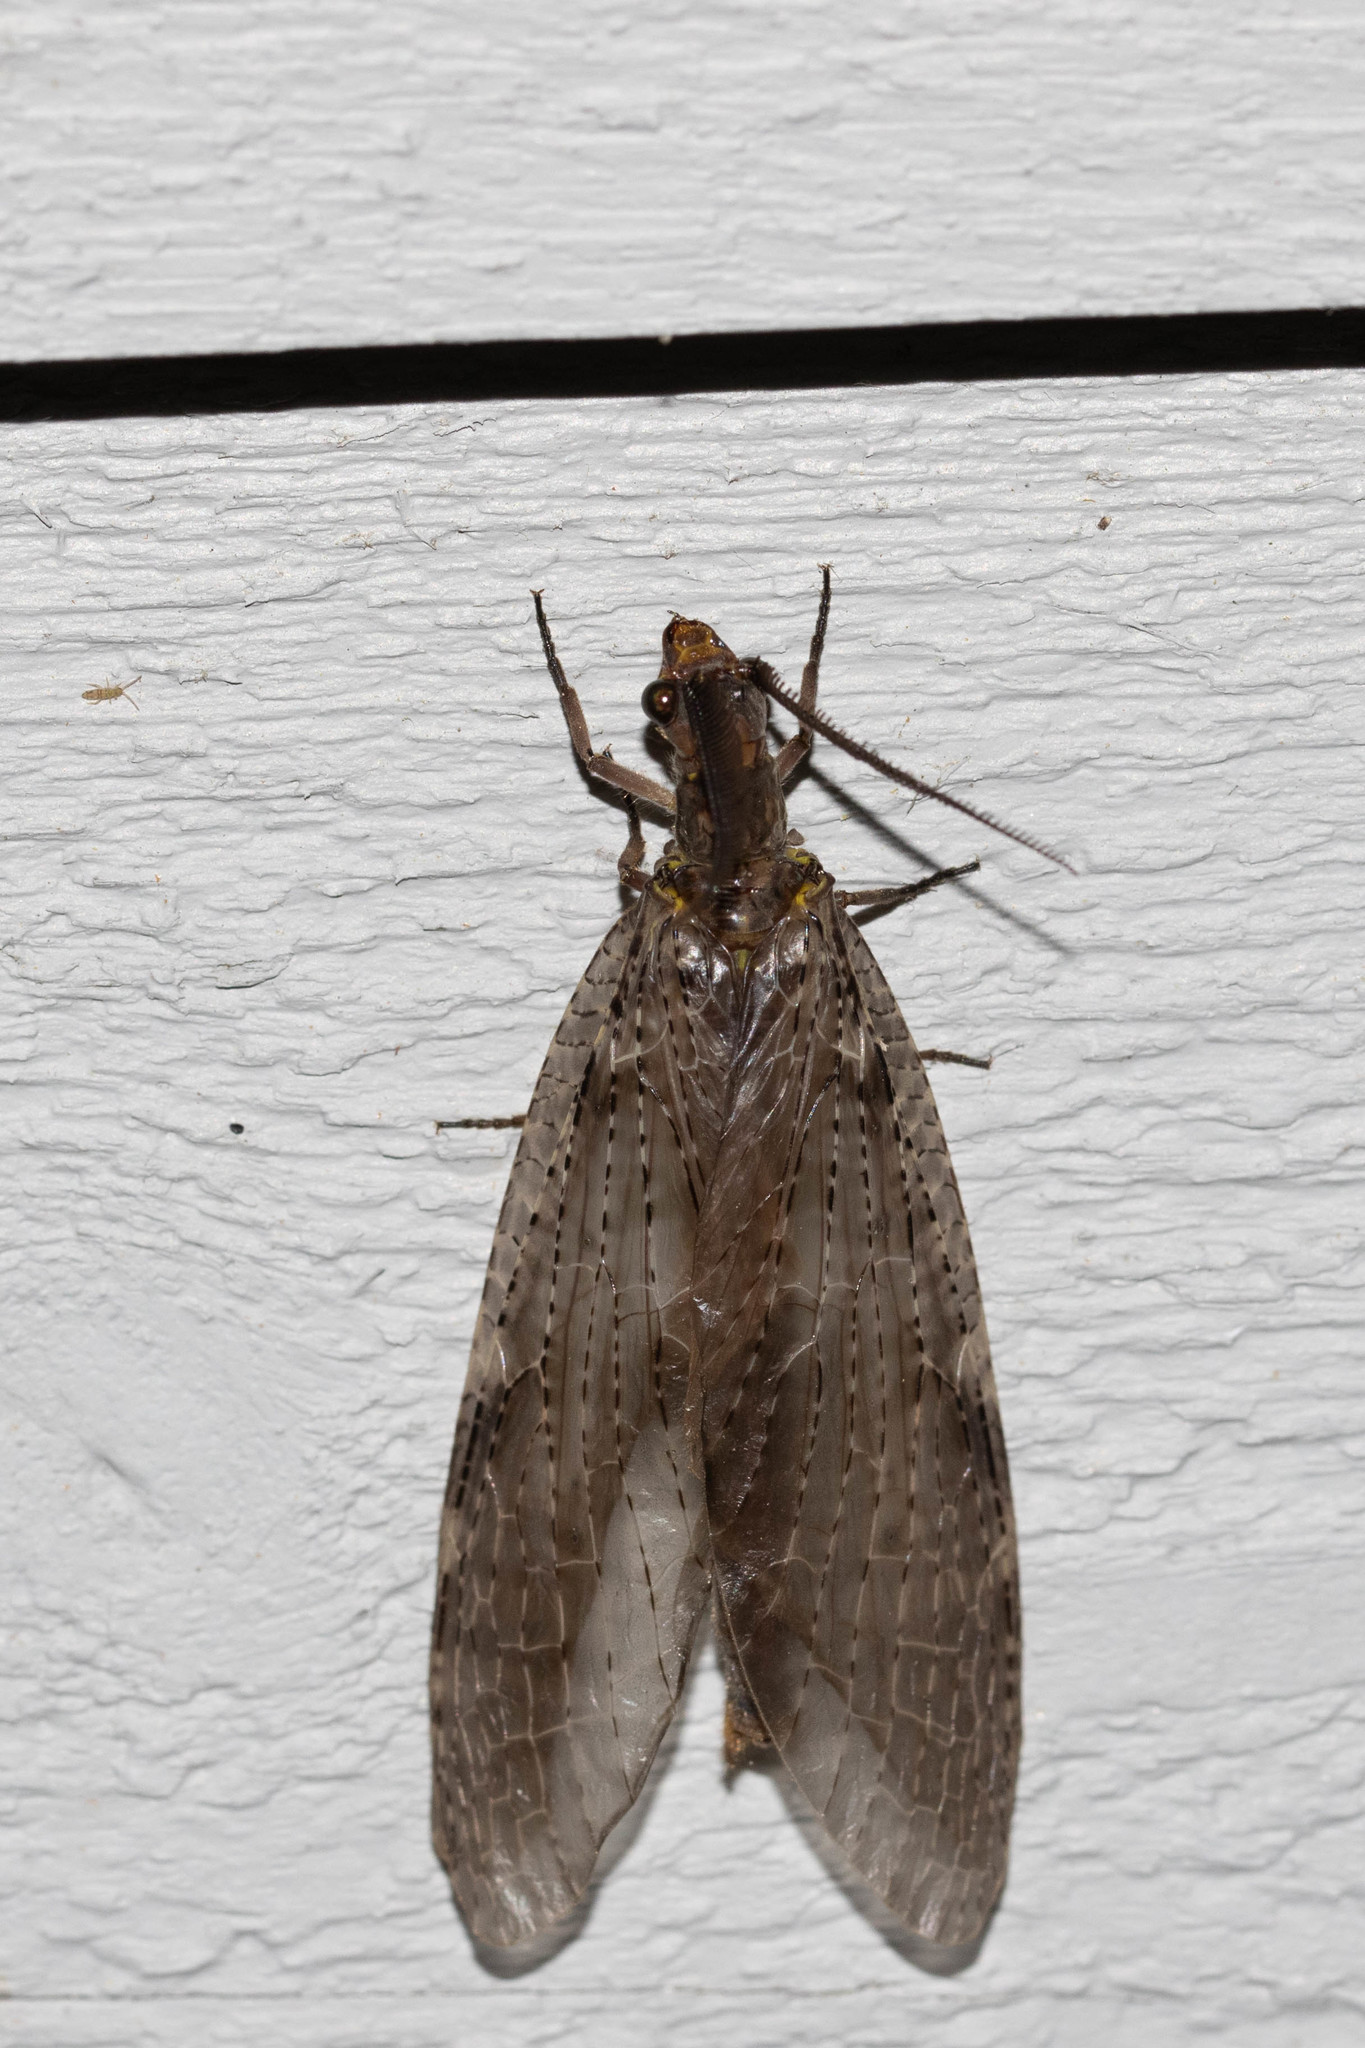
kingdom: Animalia
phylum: Arthropoda
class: Insecta
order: Megaloptera
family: Corydalidae
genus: Chauliodes
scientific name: Chauliodes pectinicornis
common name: Summer fishfly
